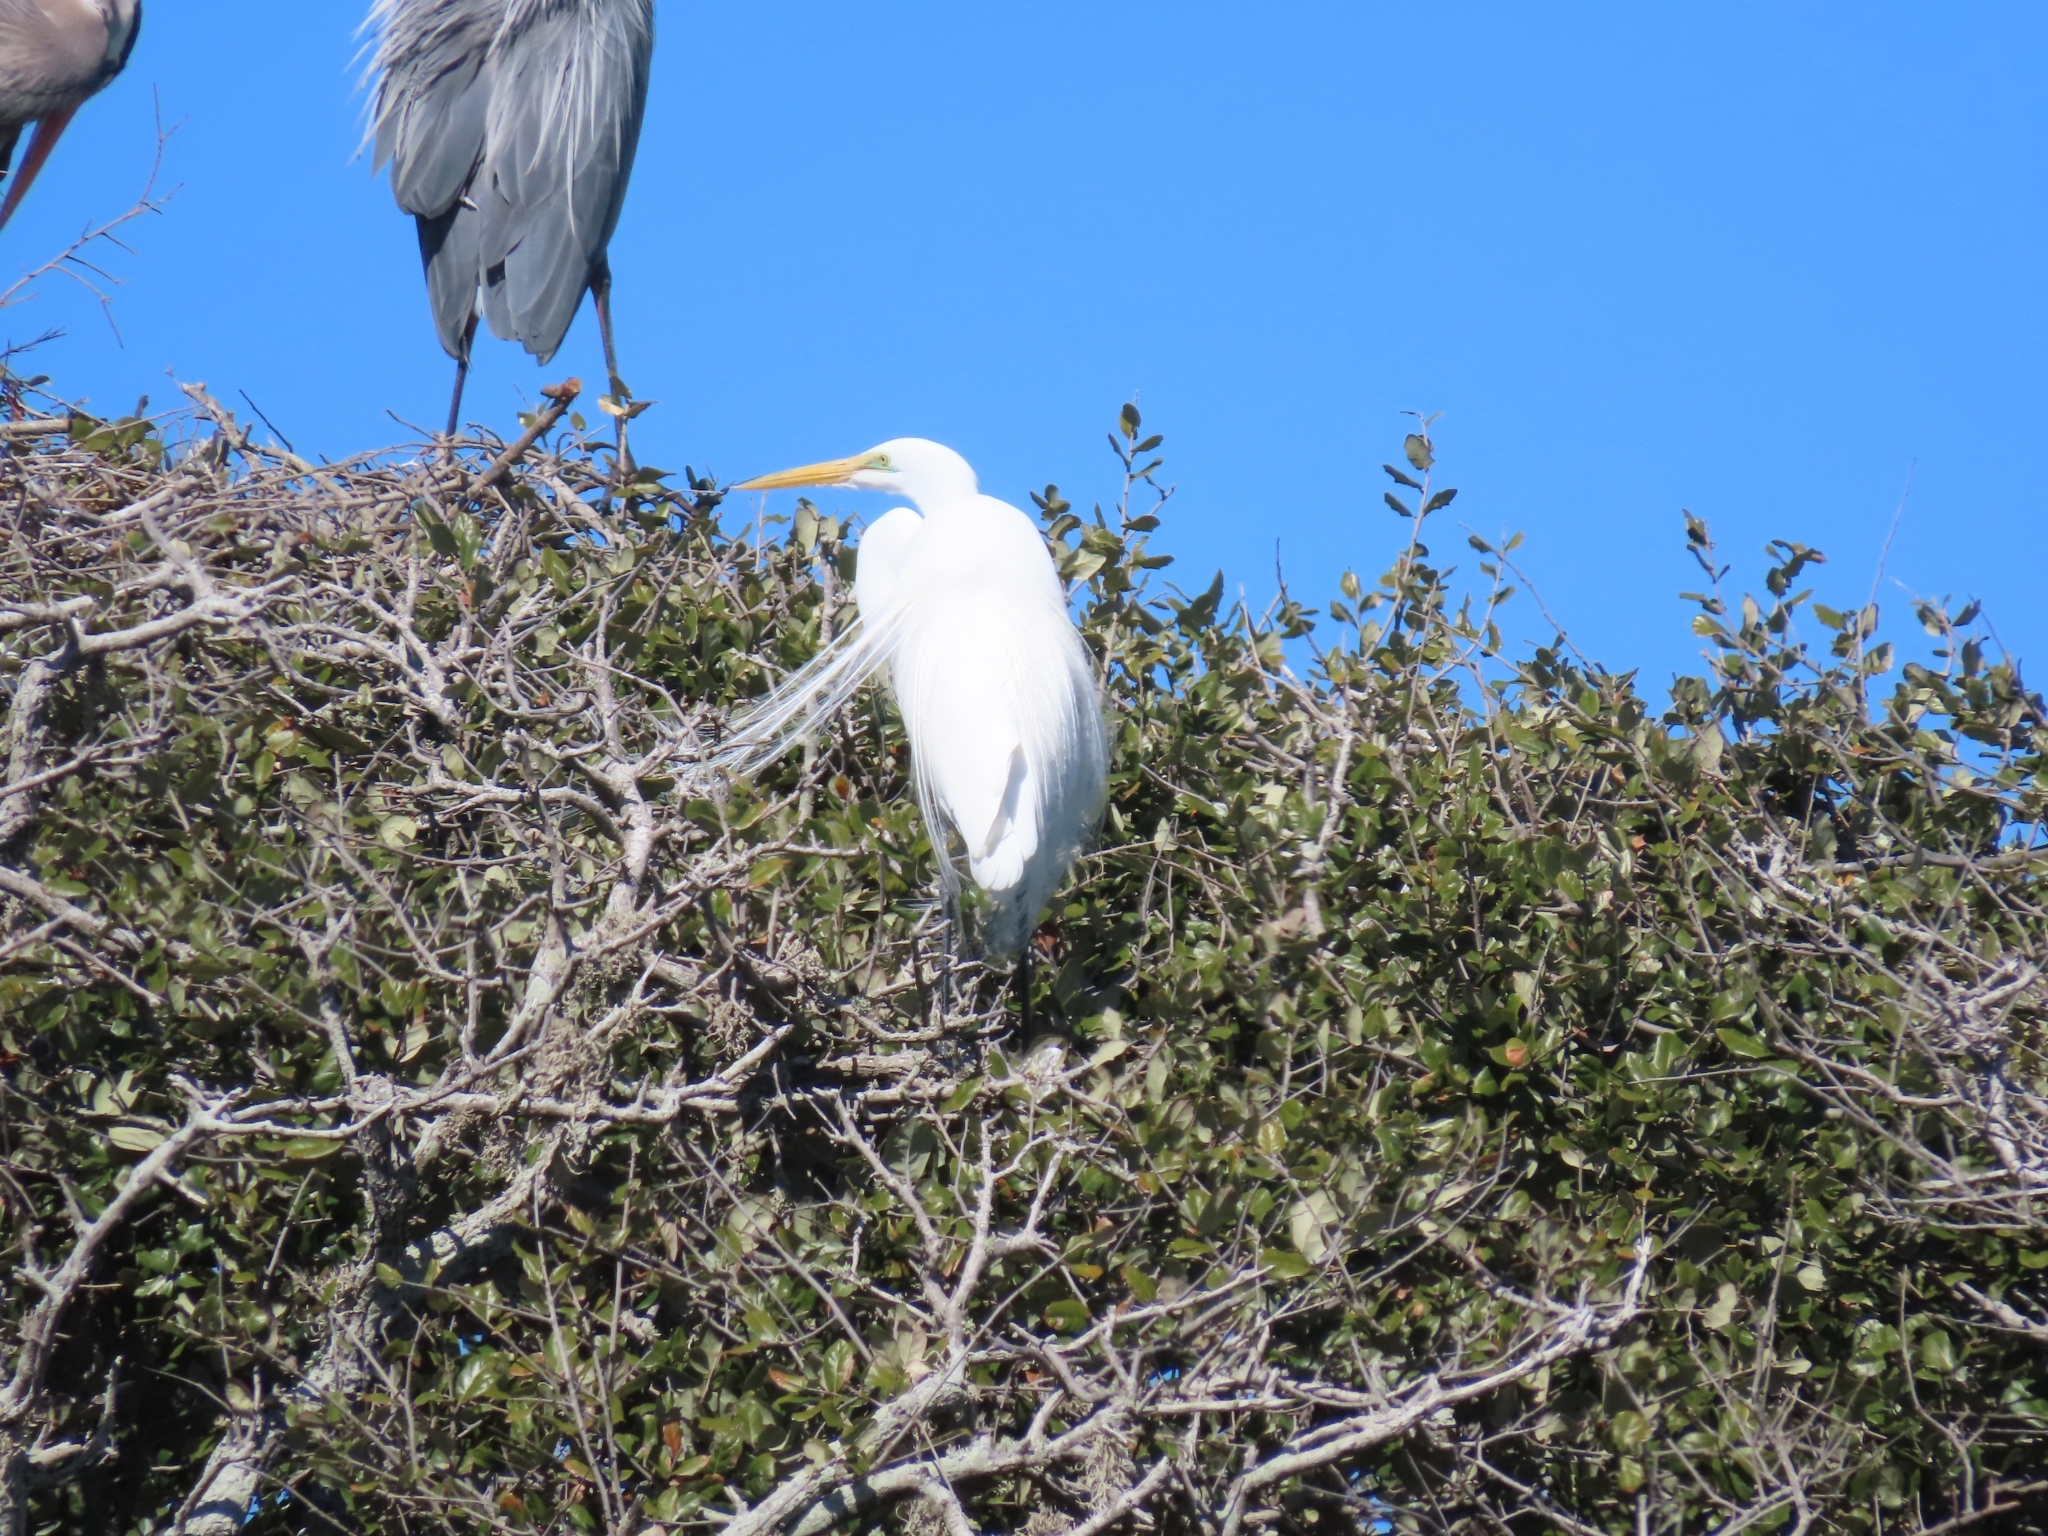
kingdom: Animalia
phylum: Chordata
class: Aves
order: Pelecaniformes
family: Ardeidae
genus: Ardea
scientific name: Ardea alba
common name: Great egret
